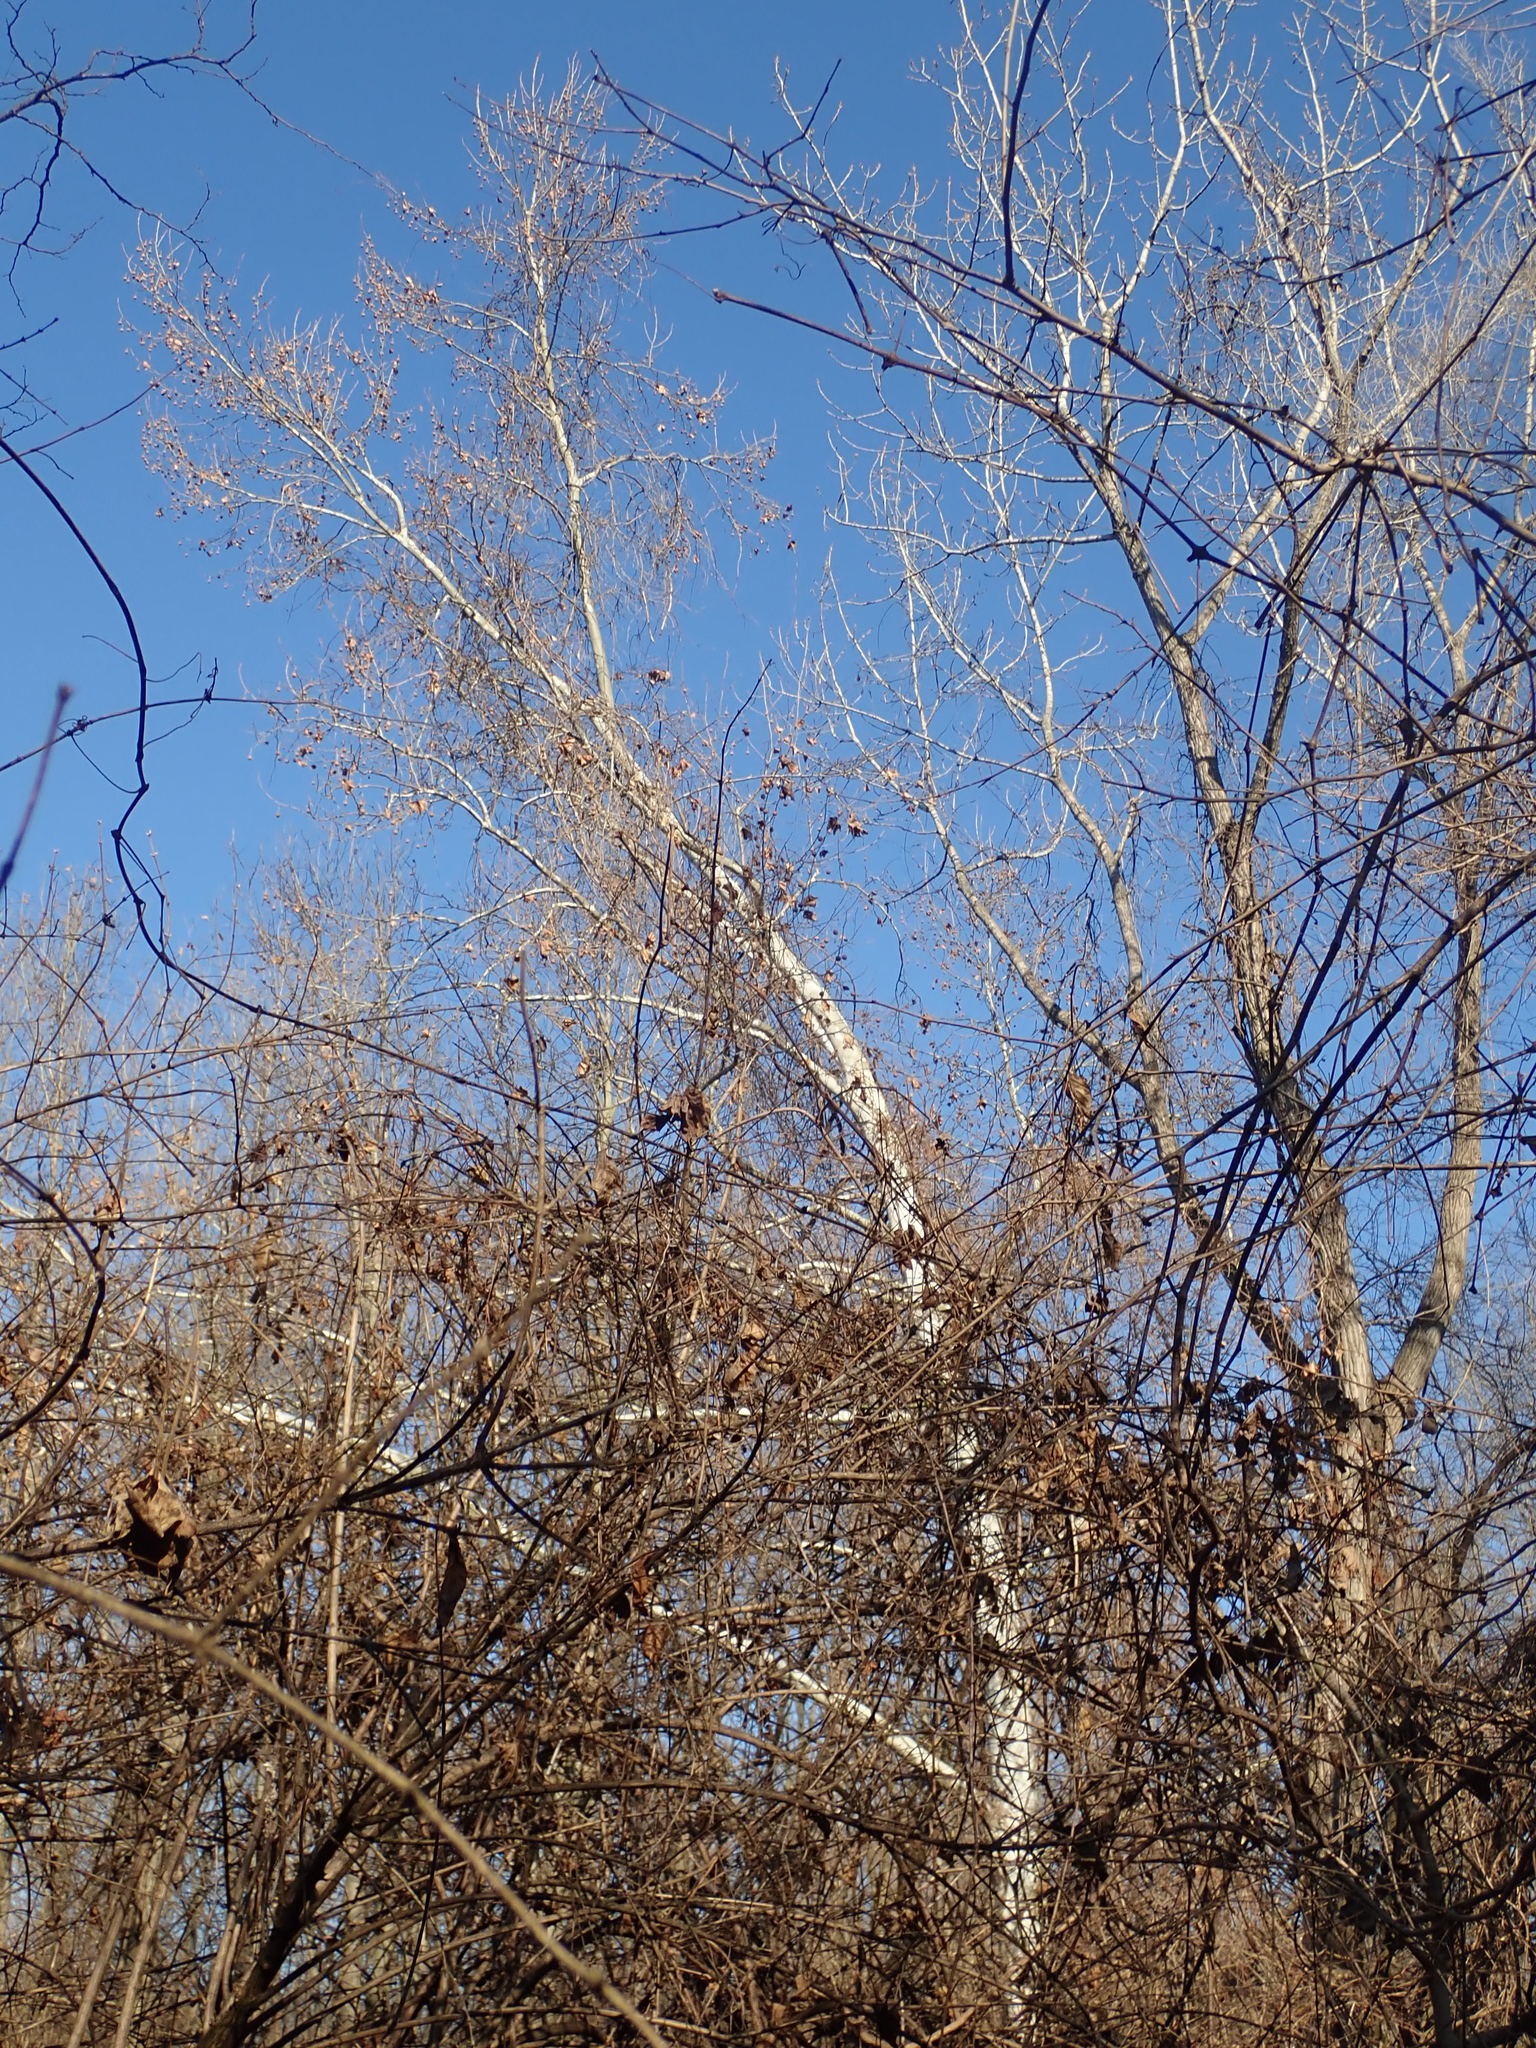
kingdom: Plantae
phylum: Tracheophyta
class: Magnoliopsida
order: Proteales
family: Platanaceae
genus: Platanus
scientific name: Platanus occidentalis
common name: American sycamore
